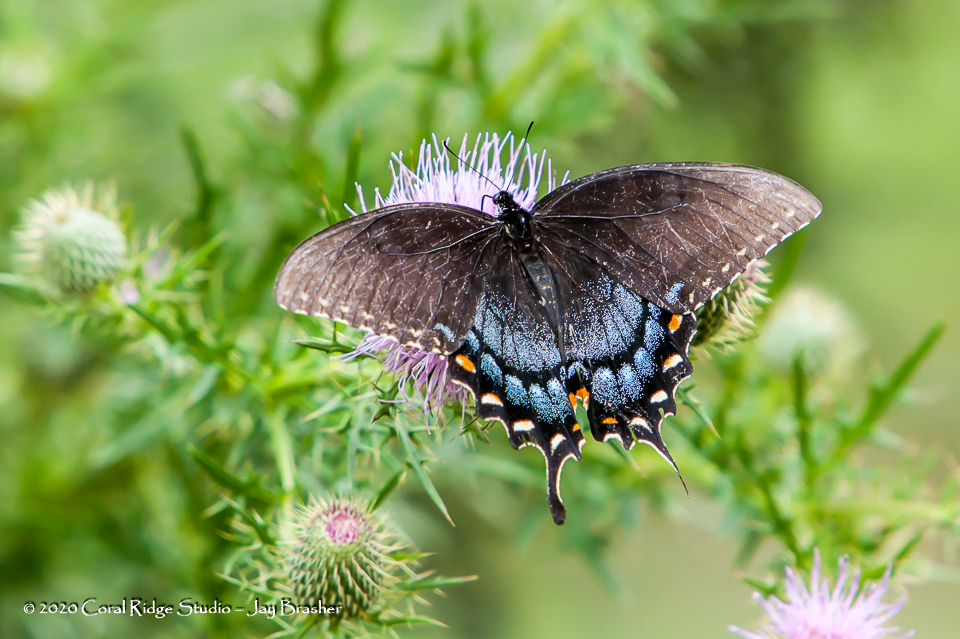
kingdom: Animalia
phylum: Arthropoda
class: Insecta
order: Lepidoptera
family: Papilionidae
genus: Papilio
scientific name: Papilio glaucus
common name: Tiger swallowtail
